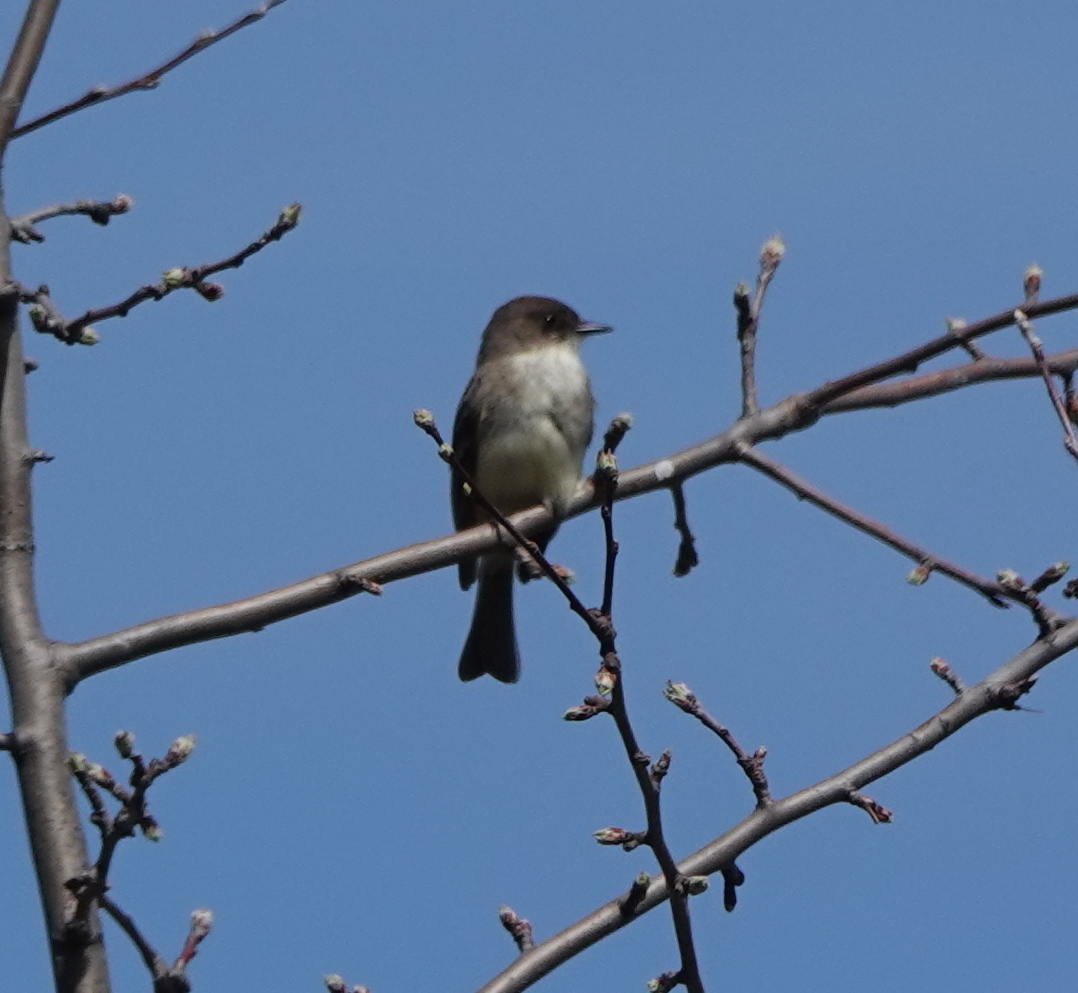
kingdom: Animalia
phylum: Chordata
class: Aves
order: Passeriformes
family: Tyrannidae
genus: Sayornis
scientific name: Sayornis phoebe
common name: Eastern phoebe
